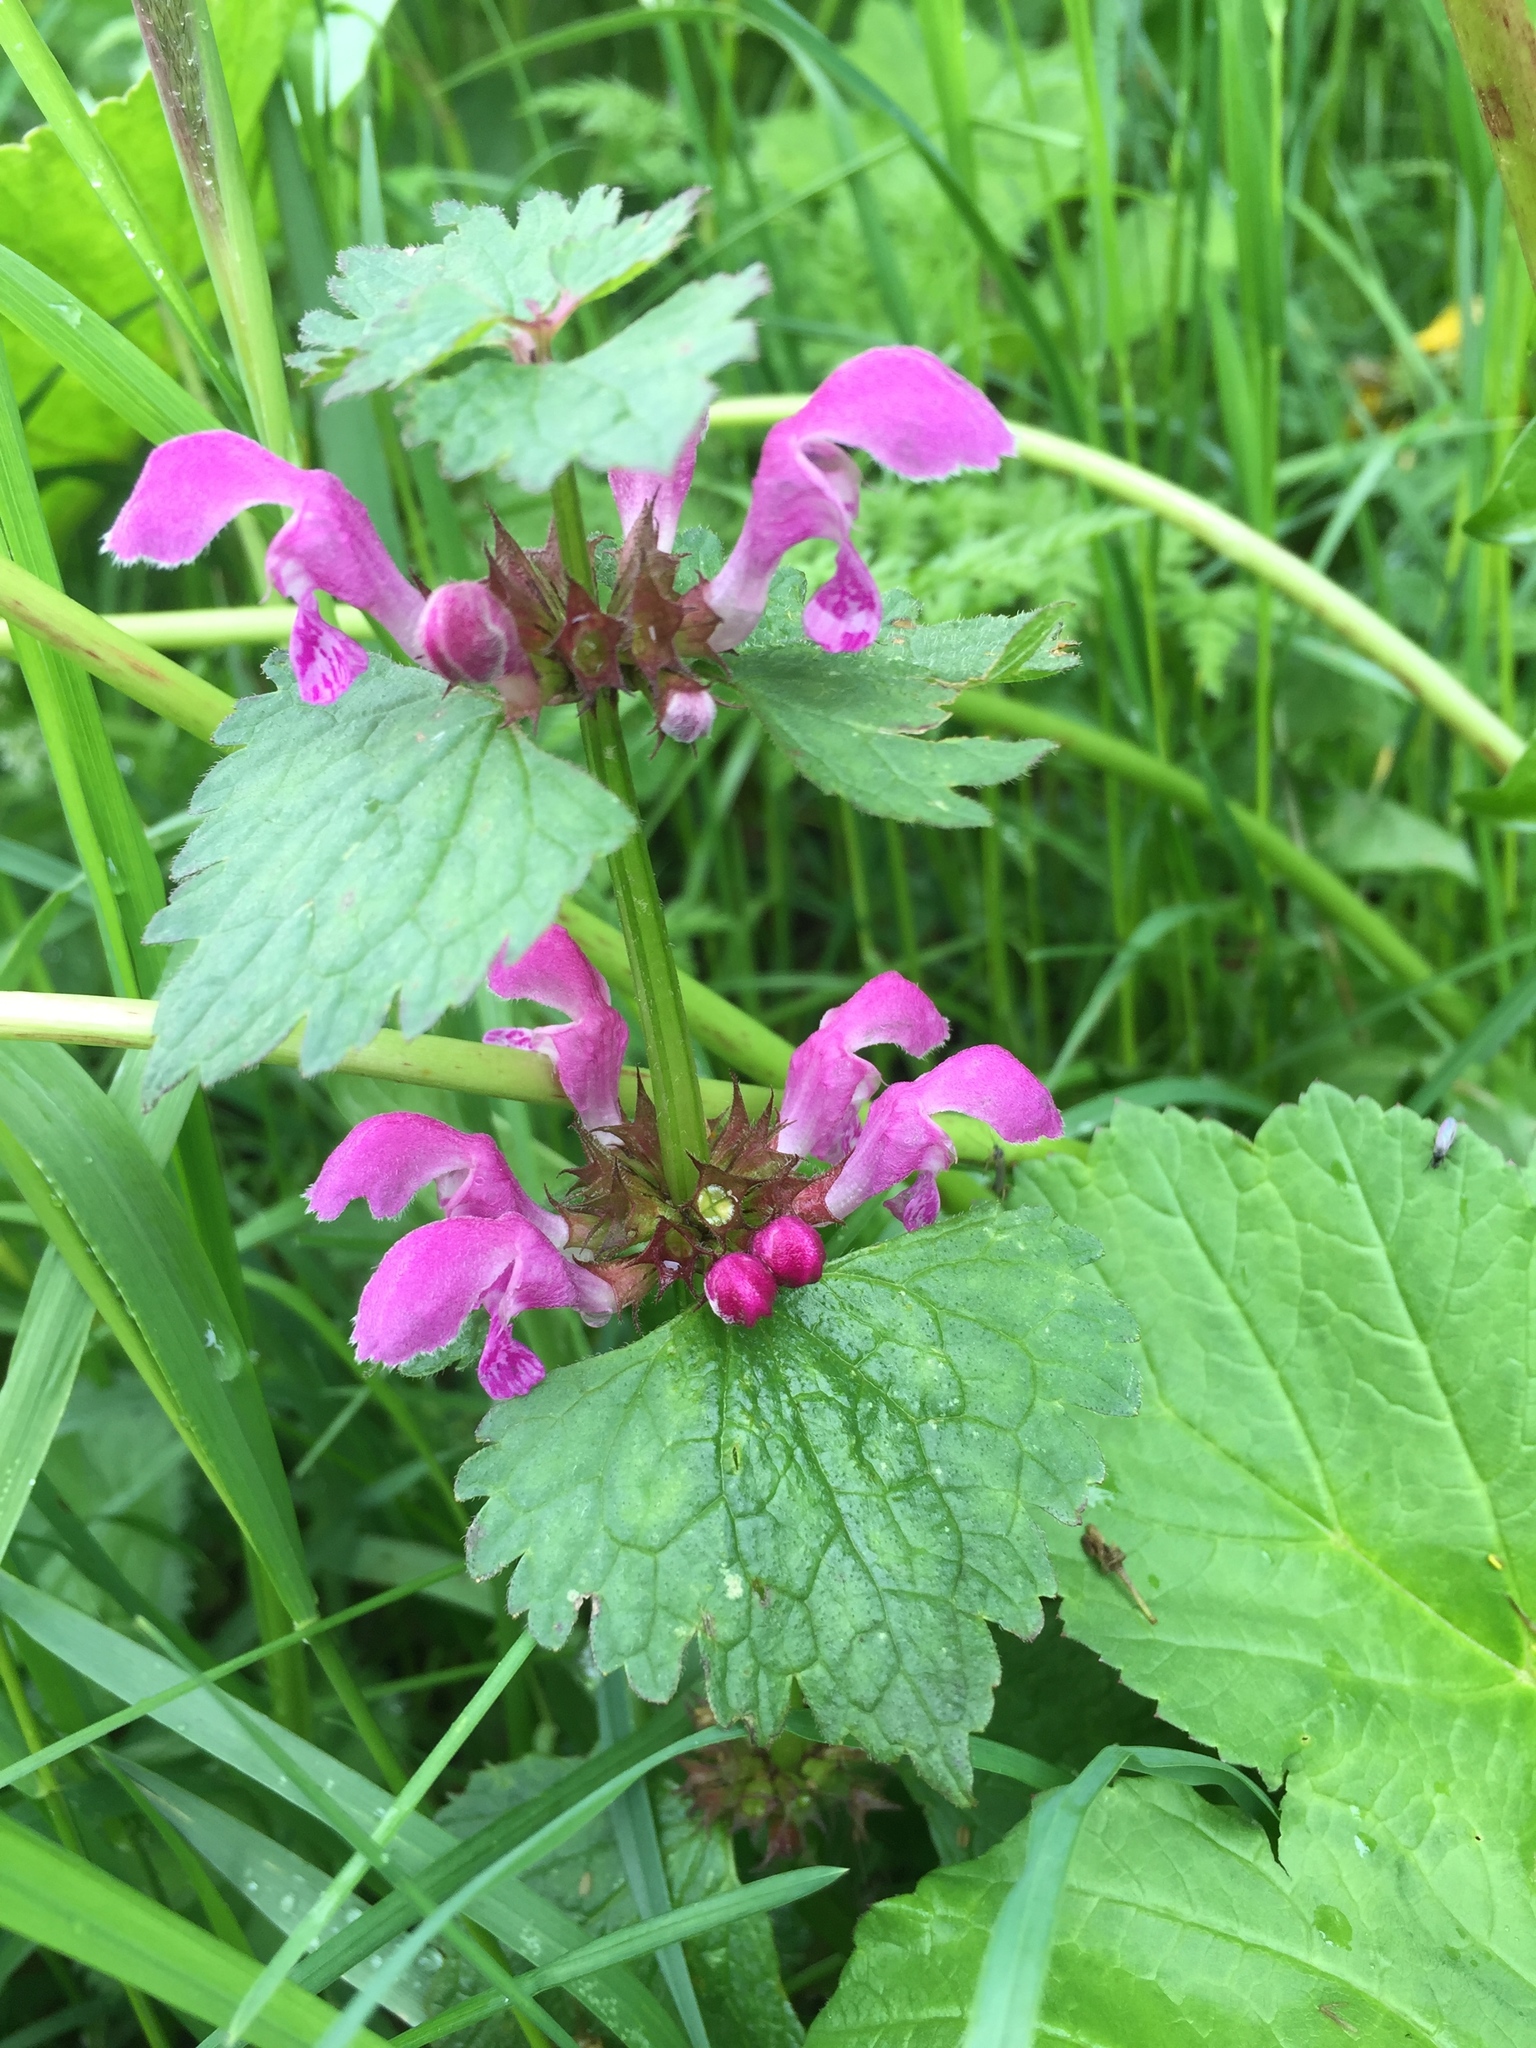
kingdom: Plantae
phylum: Tracheophyta
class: Magnoliopsida
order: Lamiales
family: Lamiaceae
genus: Lamium
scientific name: Lamium maculatum
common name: Spotted dead-nettle
